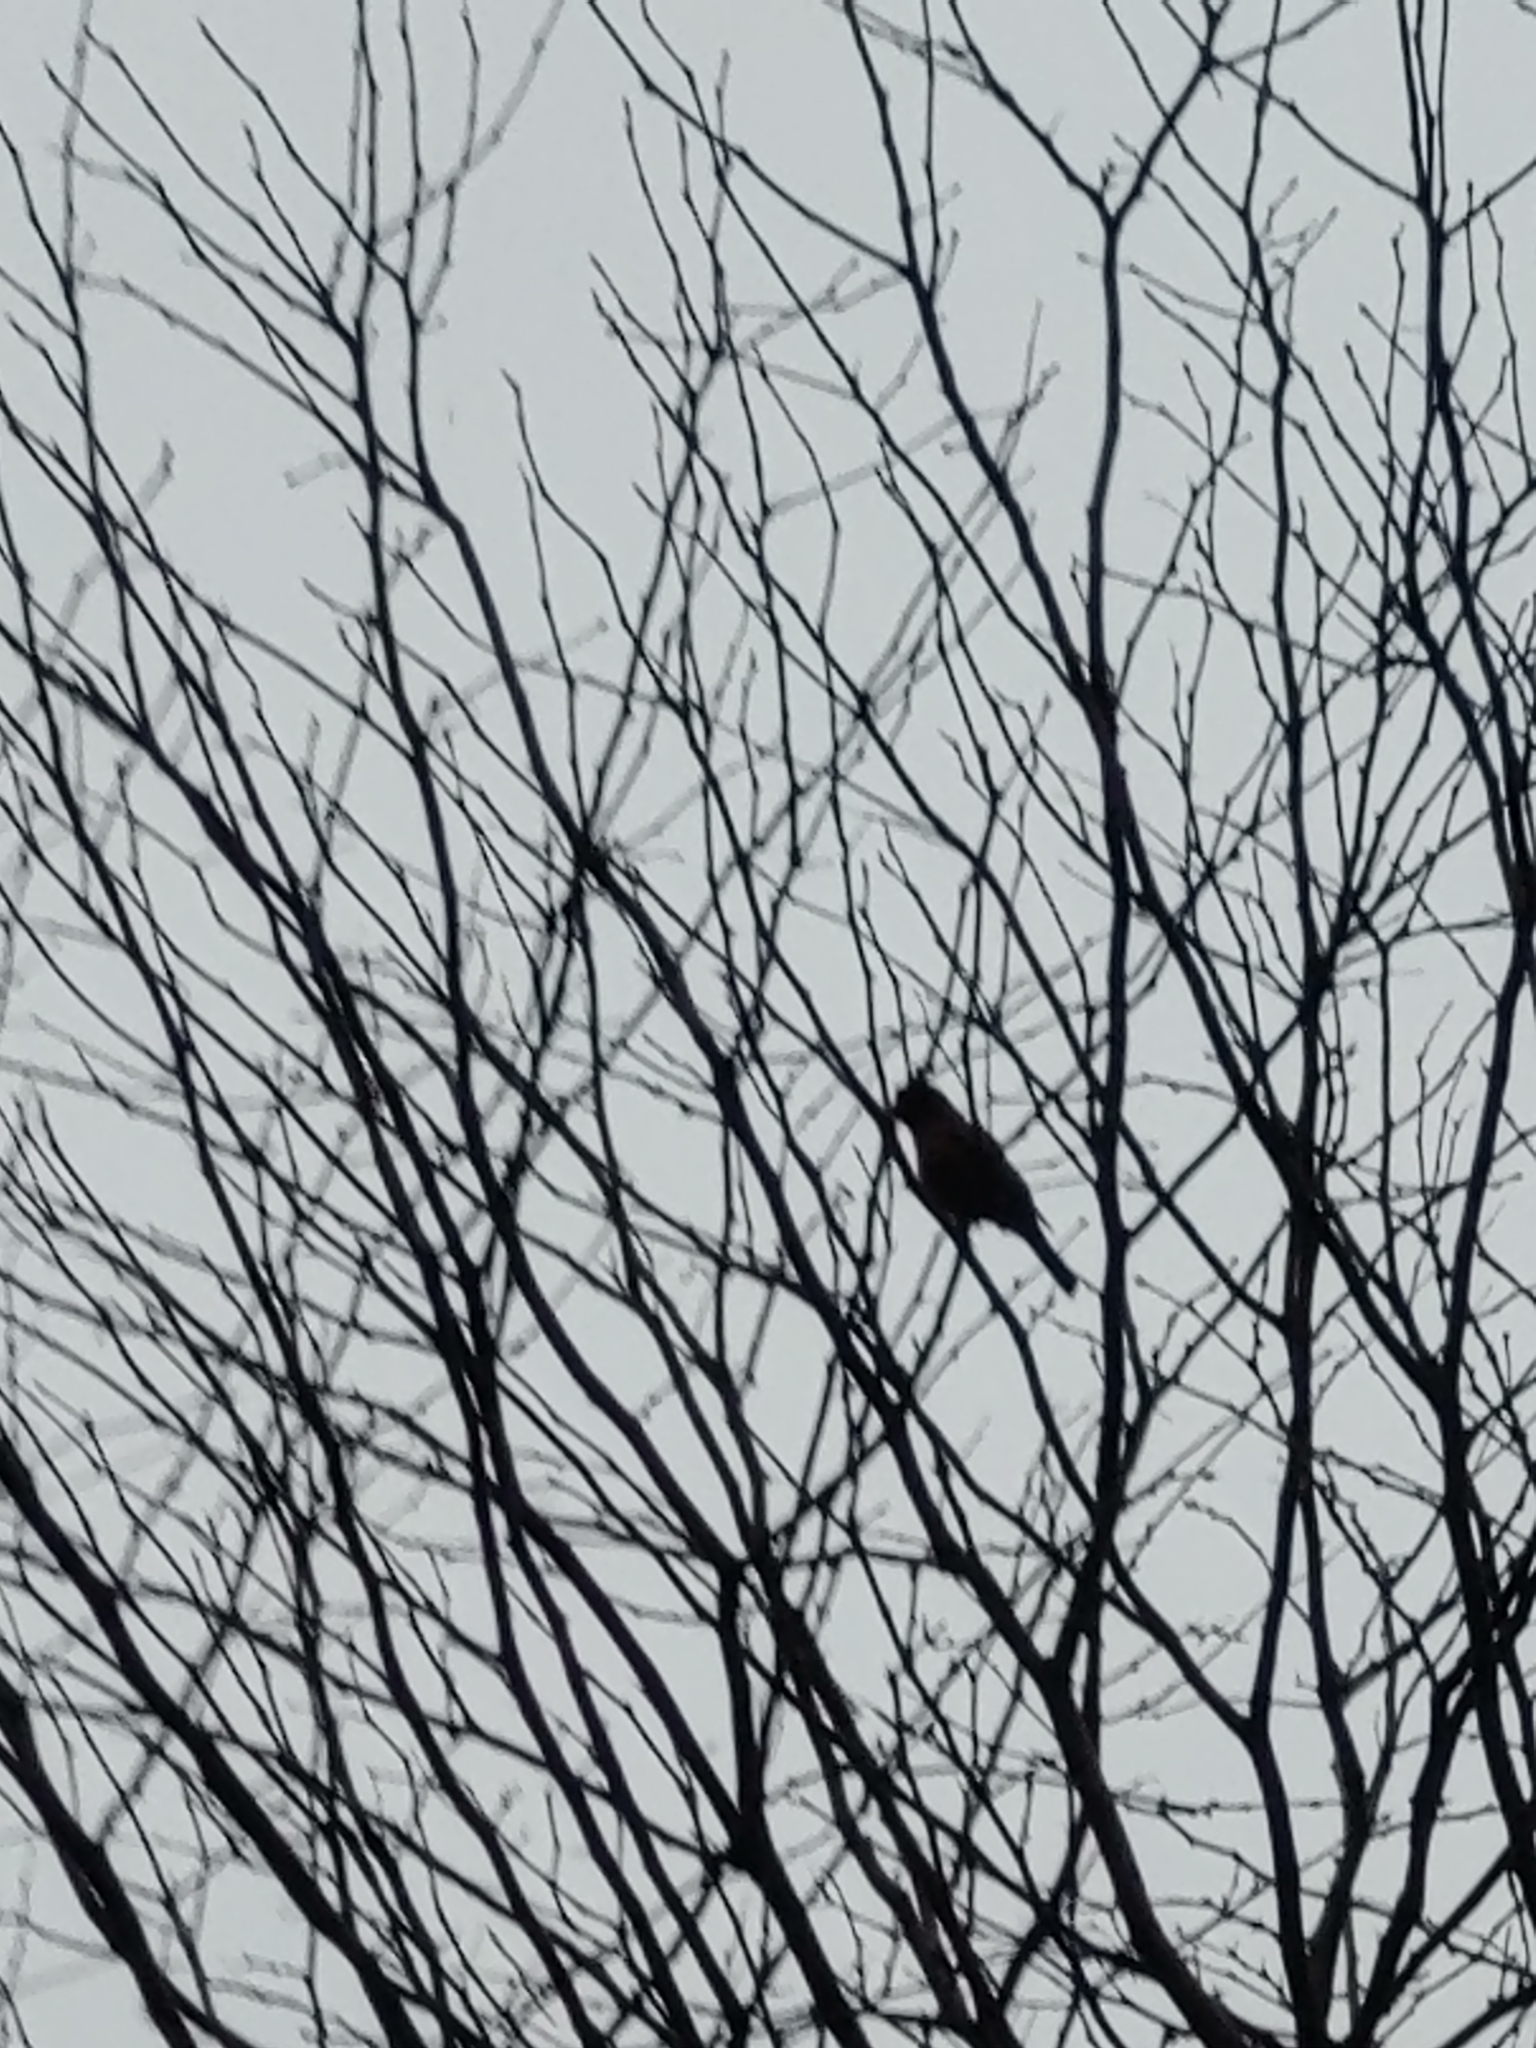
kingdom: Animalia
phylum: Chordata
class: Aves
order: Passeriformes
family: Turdidae
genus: Turdus
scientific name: Turdus migratorius
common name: American robin
